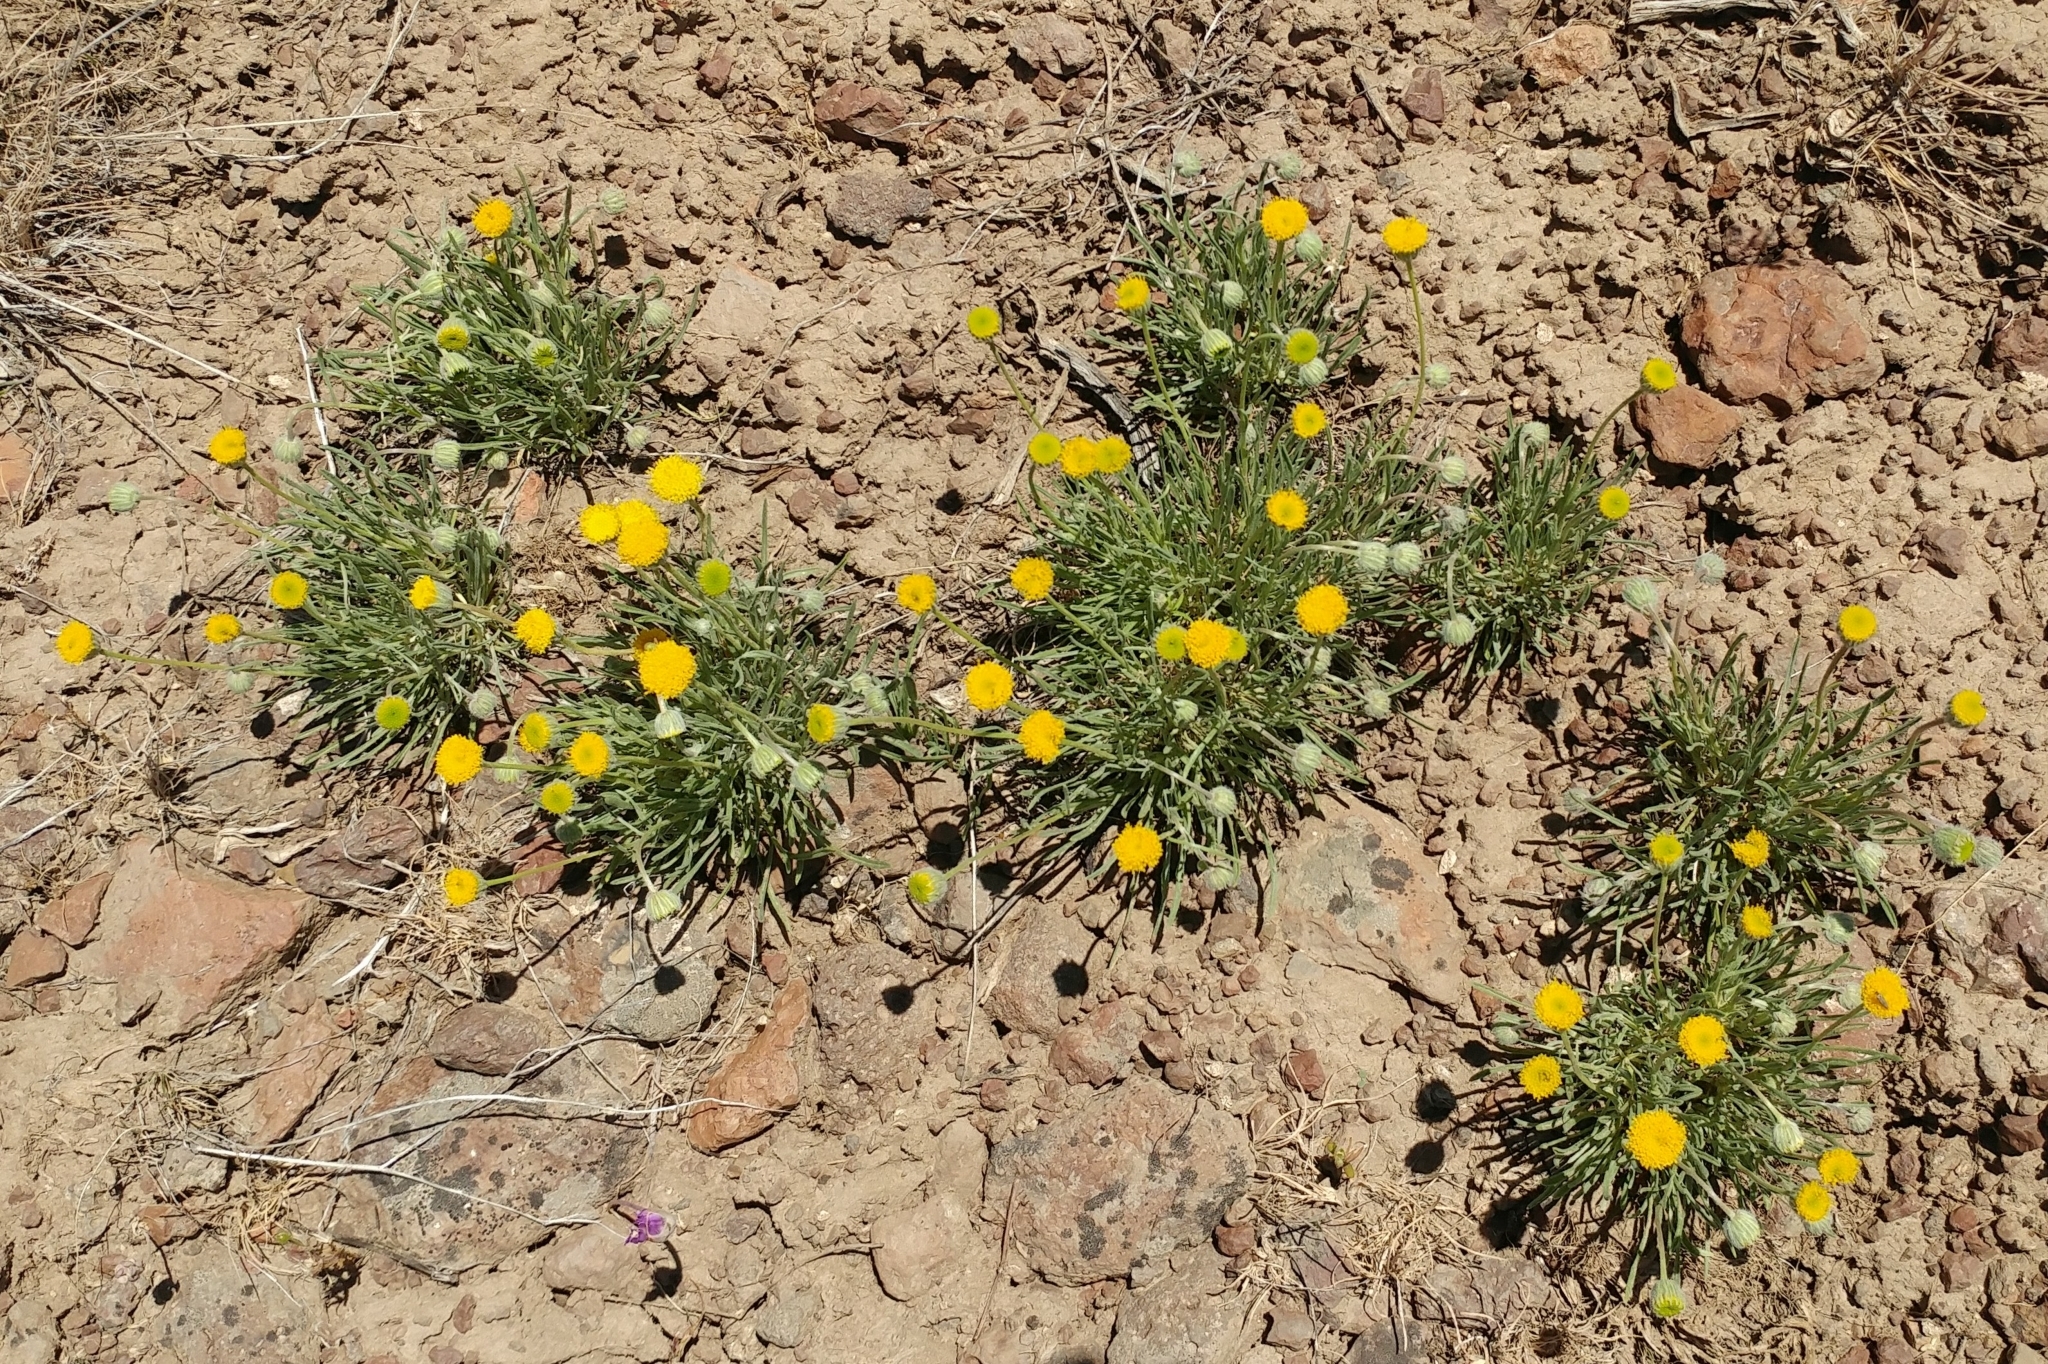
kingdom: Plantae
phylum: Tracheophyta
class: Magnoliopsida
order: Asterales
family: Asteraceae
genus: Erigeron
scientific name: Erigeron aphanactis
